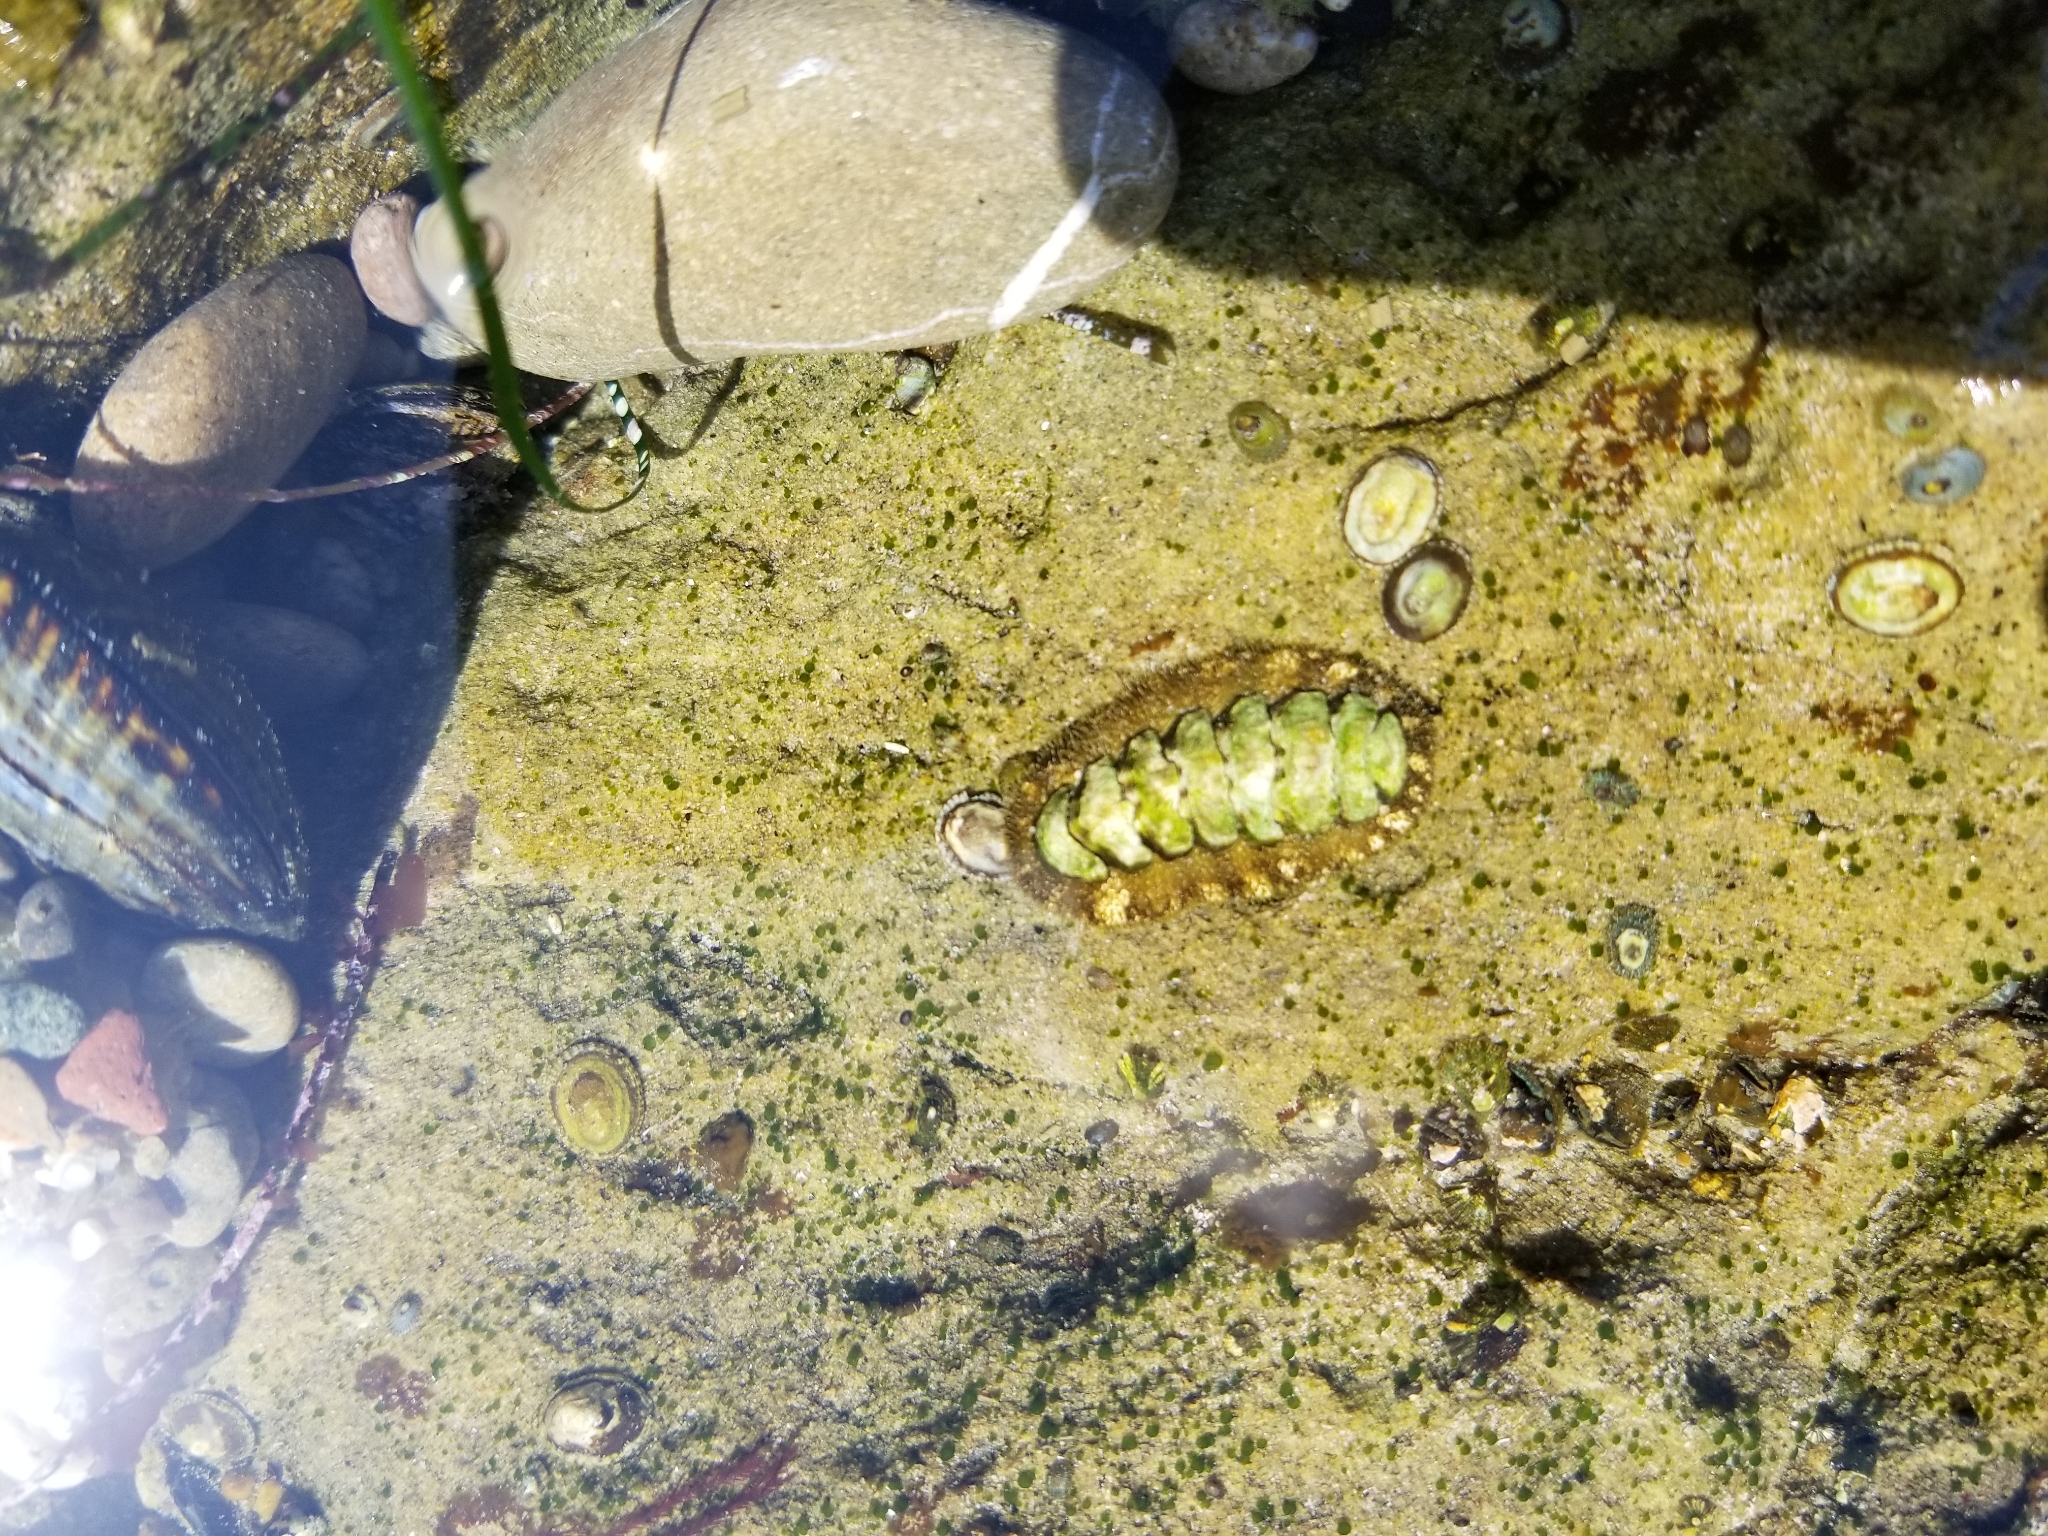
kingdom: Animalia
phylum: Mollusca
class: Polyplacophora
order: Chitonida
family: Tonicellidae
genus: Nuttallina
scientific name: Nuttallina californica
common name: California nuttall chiton
